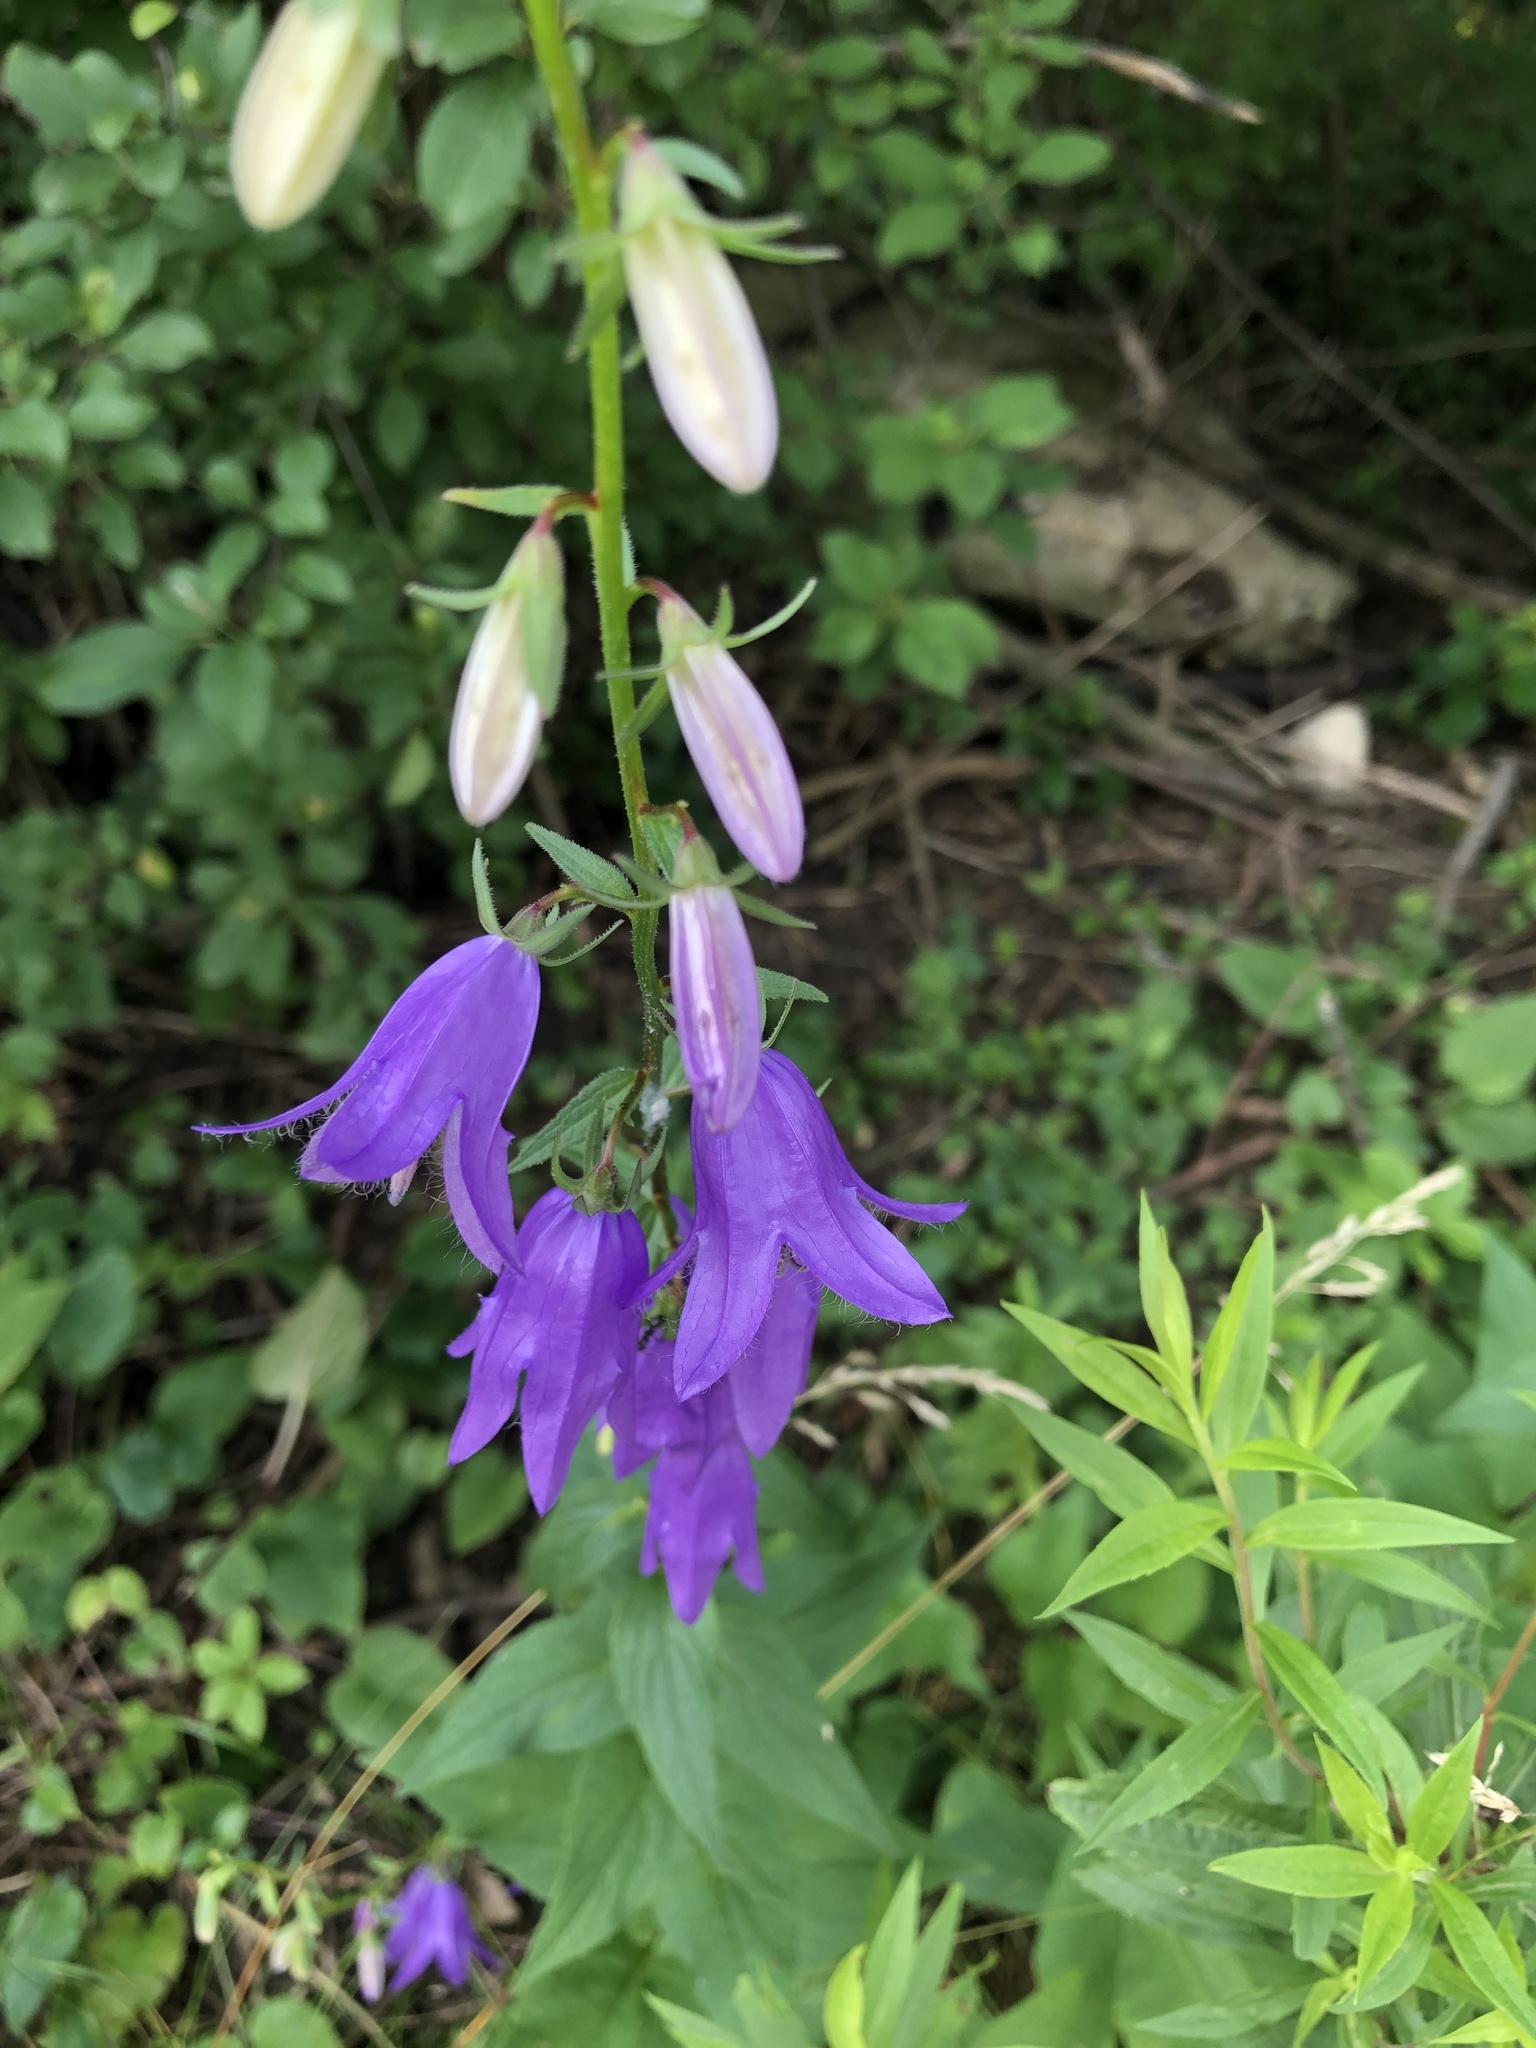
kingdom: Plantae
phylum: Tracheophyta
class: Magnoliopsida
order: Asterales
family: Campanulaceae
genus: Campanula
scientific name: Campanula rapunculoides
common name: Creeping bellflower
